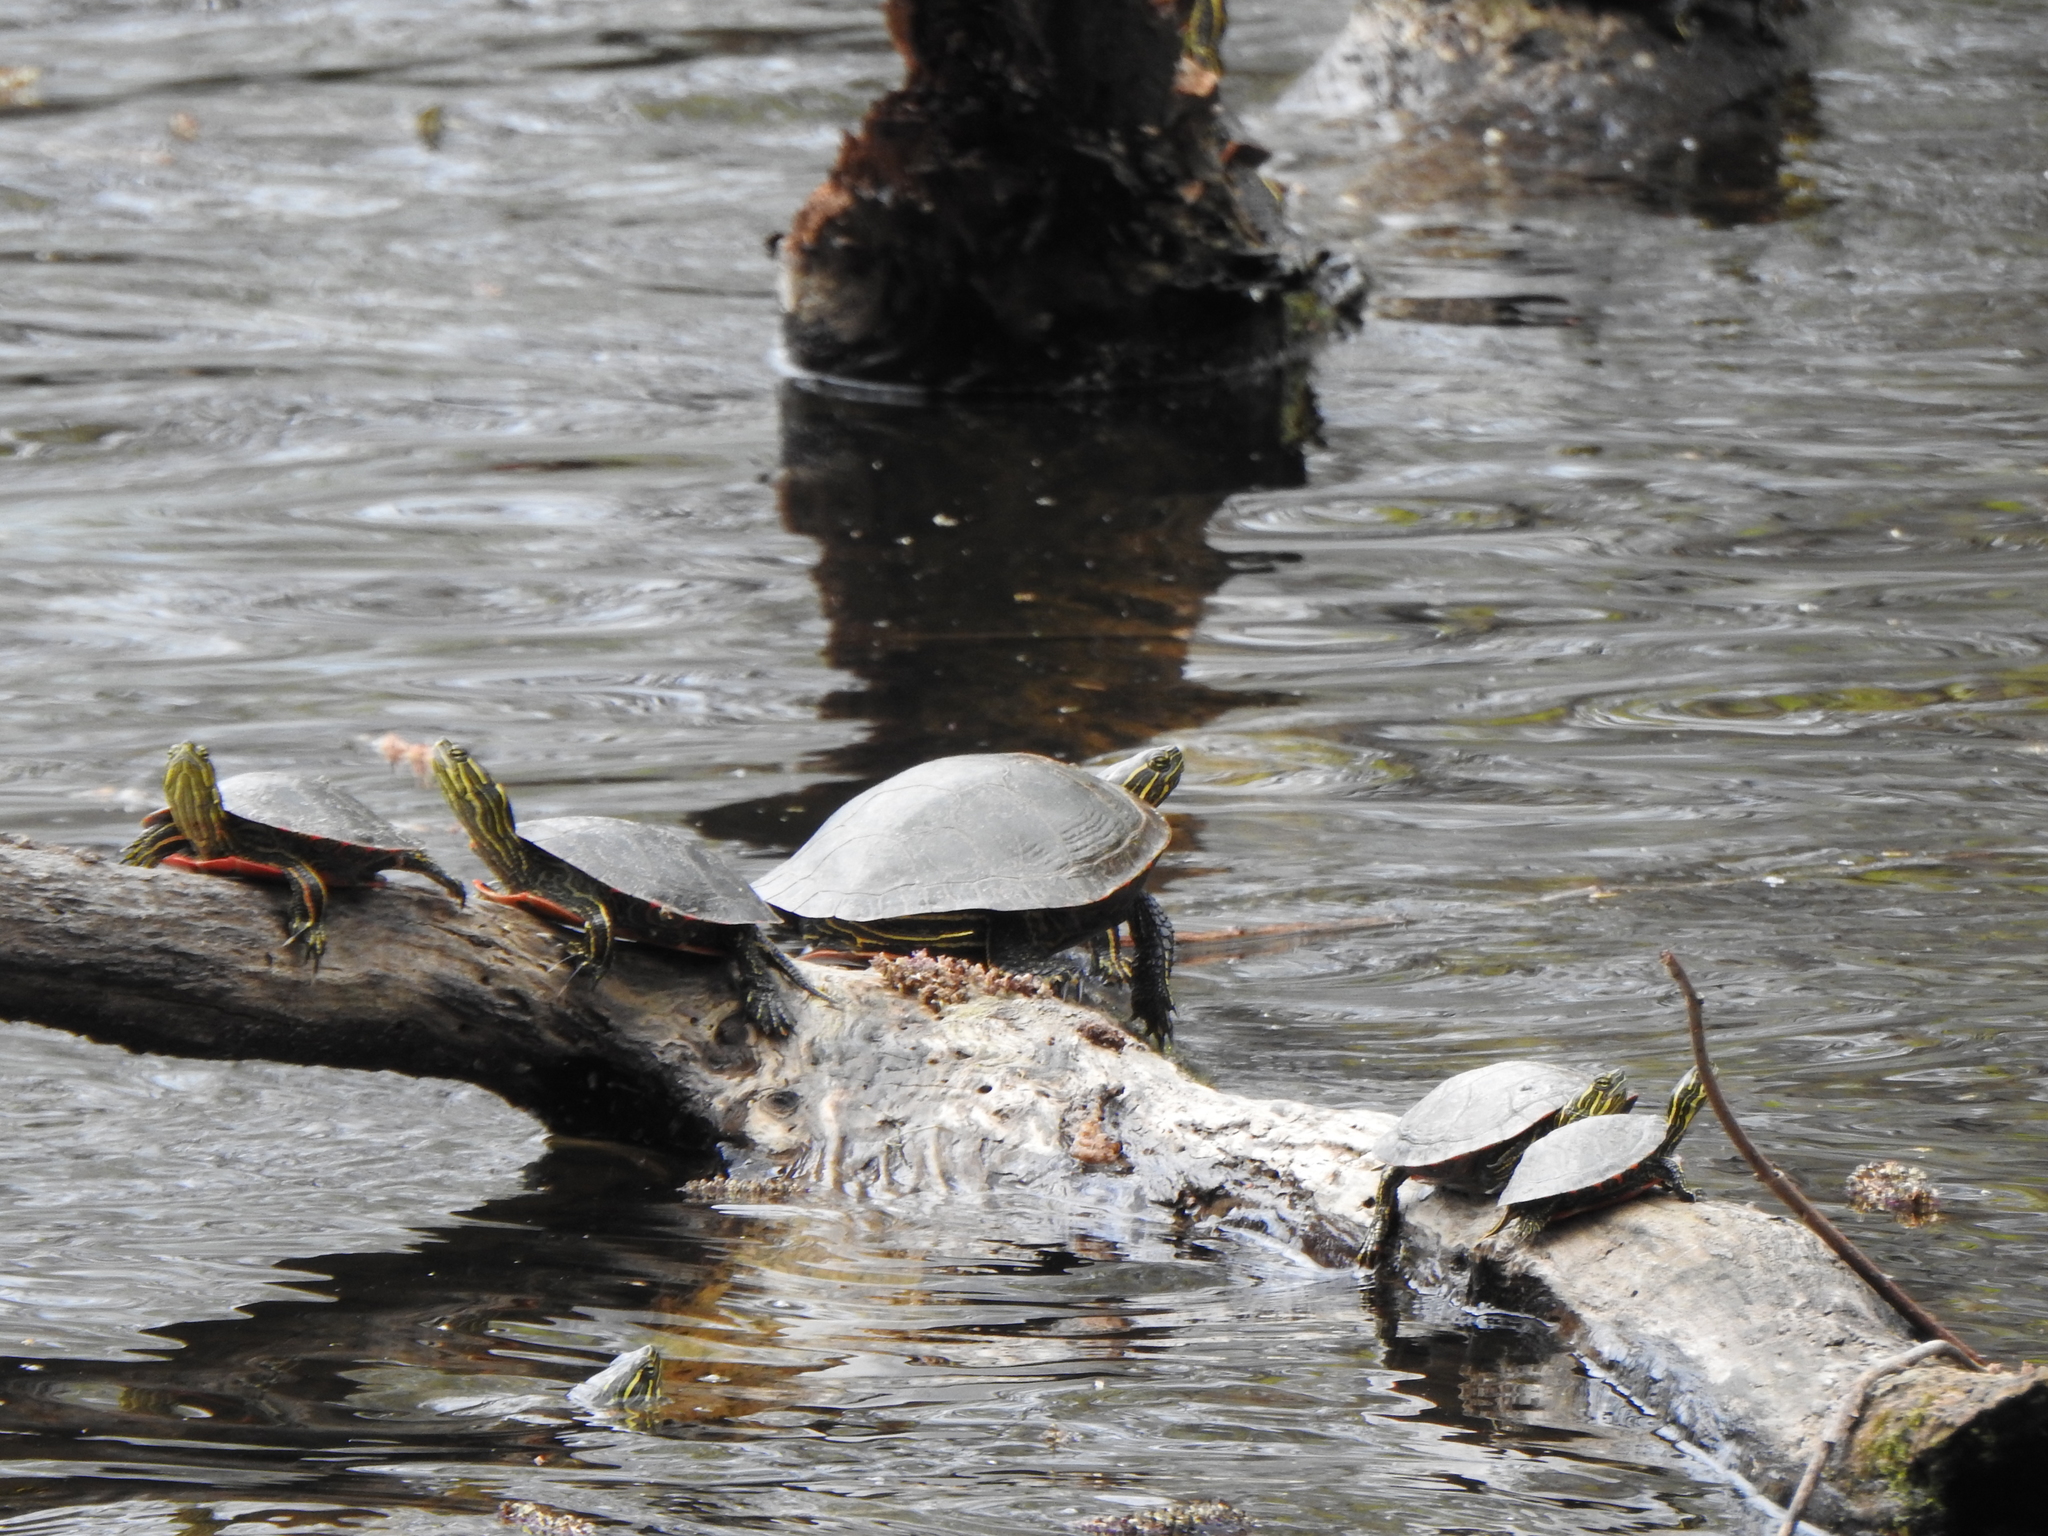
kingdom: Animalia
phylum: Chordata
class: Testudines
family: Emydidae
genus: Chrysemys
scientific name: Chrysemys picta
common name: Painted turtle
